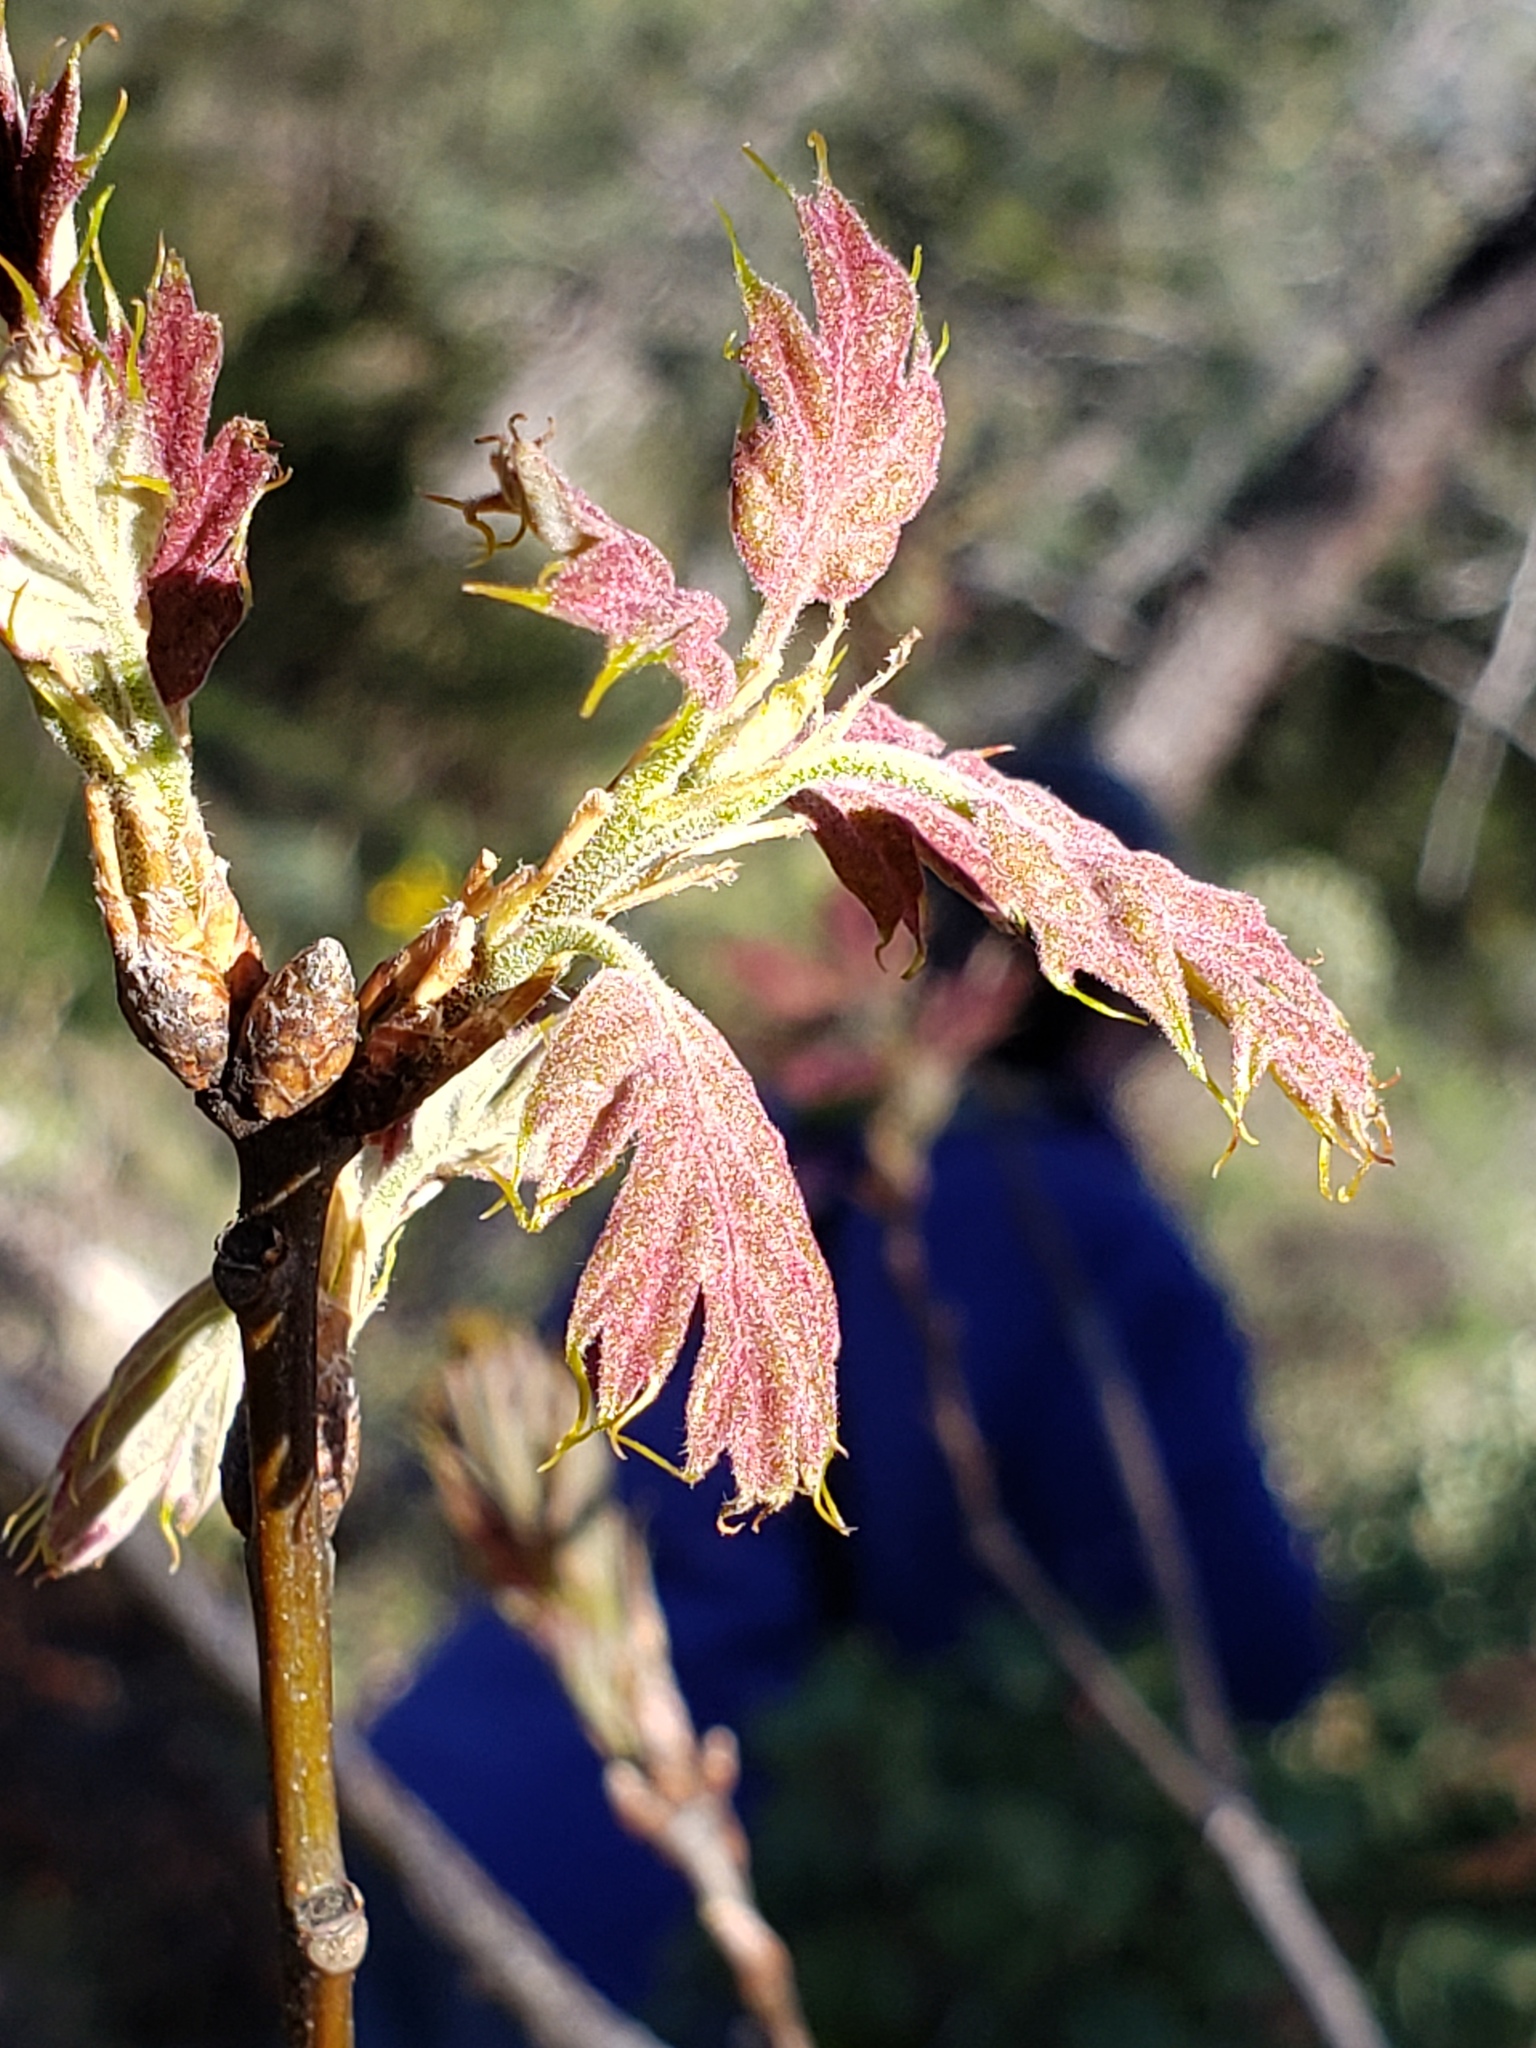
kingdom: Plantae
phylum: Tracheophyta
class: Magnoliopsida
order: Fagales
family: Fagaceae
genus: Quercus
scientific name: Quercus kelloggii
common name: California black oak
